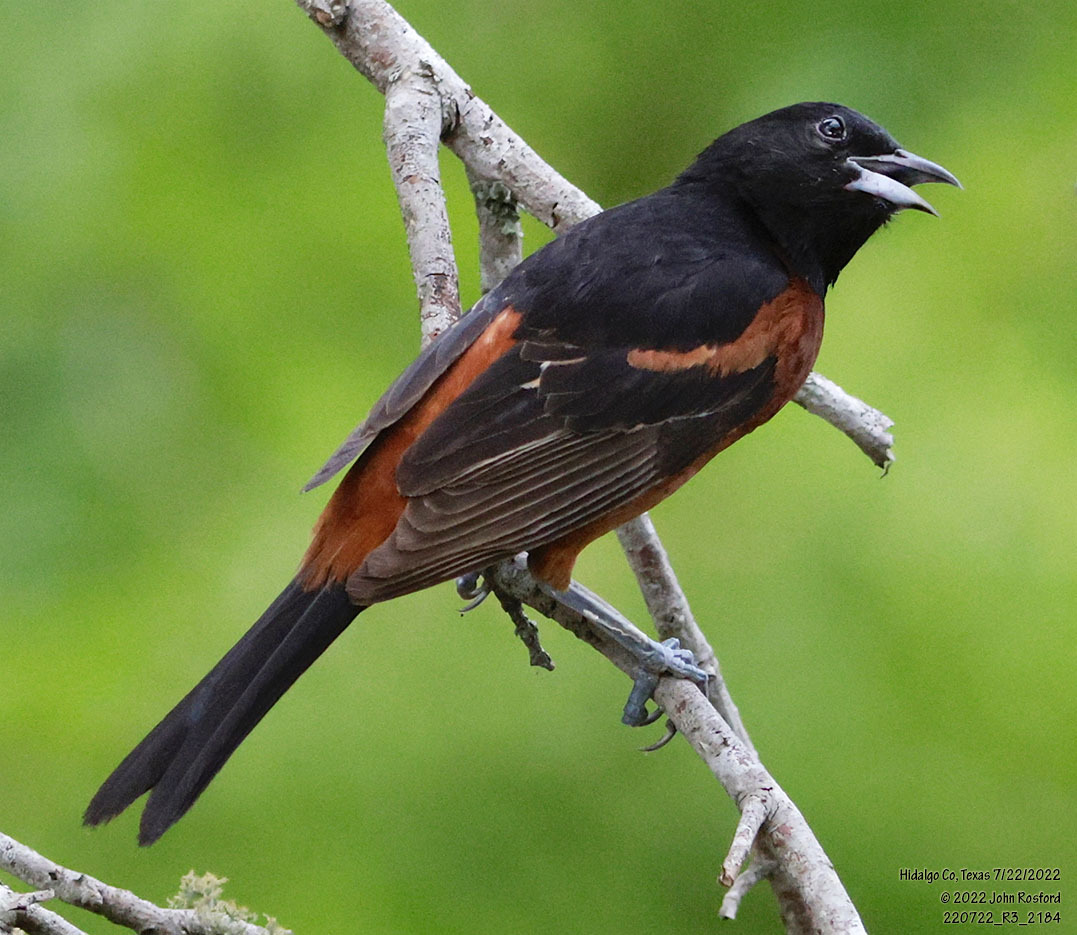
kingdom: Animalia
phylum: Chordata
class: Aves
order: Passeriformes
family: Icteridae
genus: Icterus
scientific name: Icterus spurius
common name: Orchard oriole
